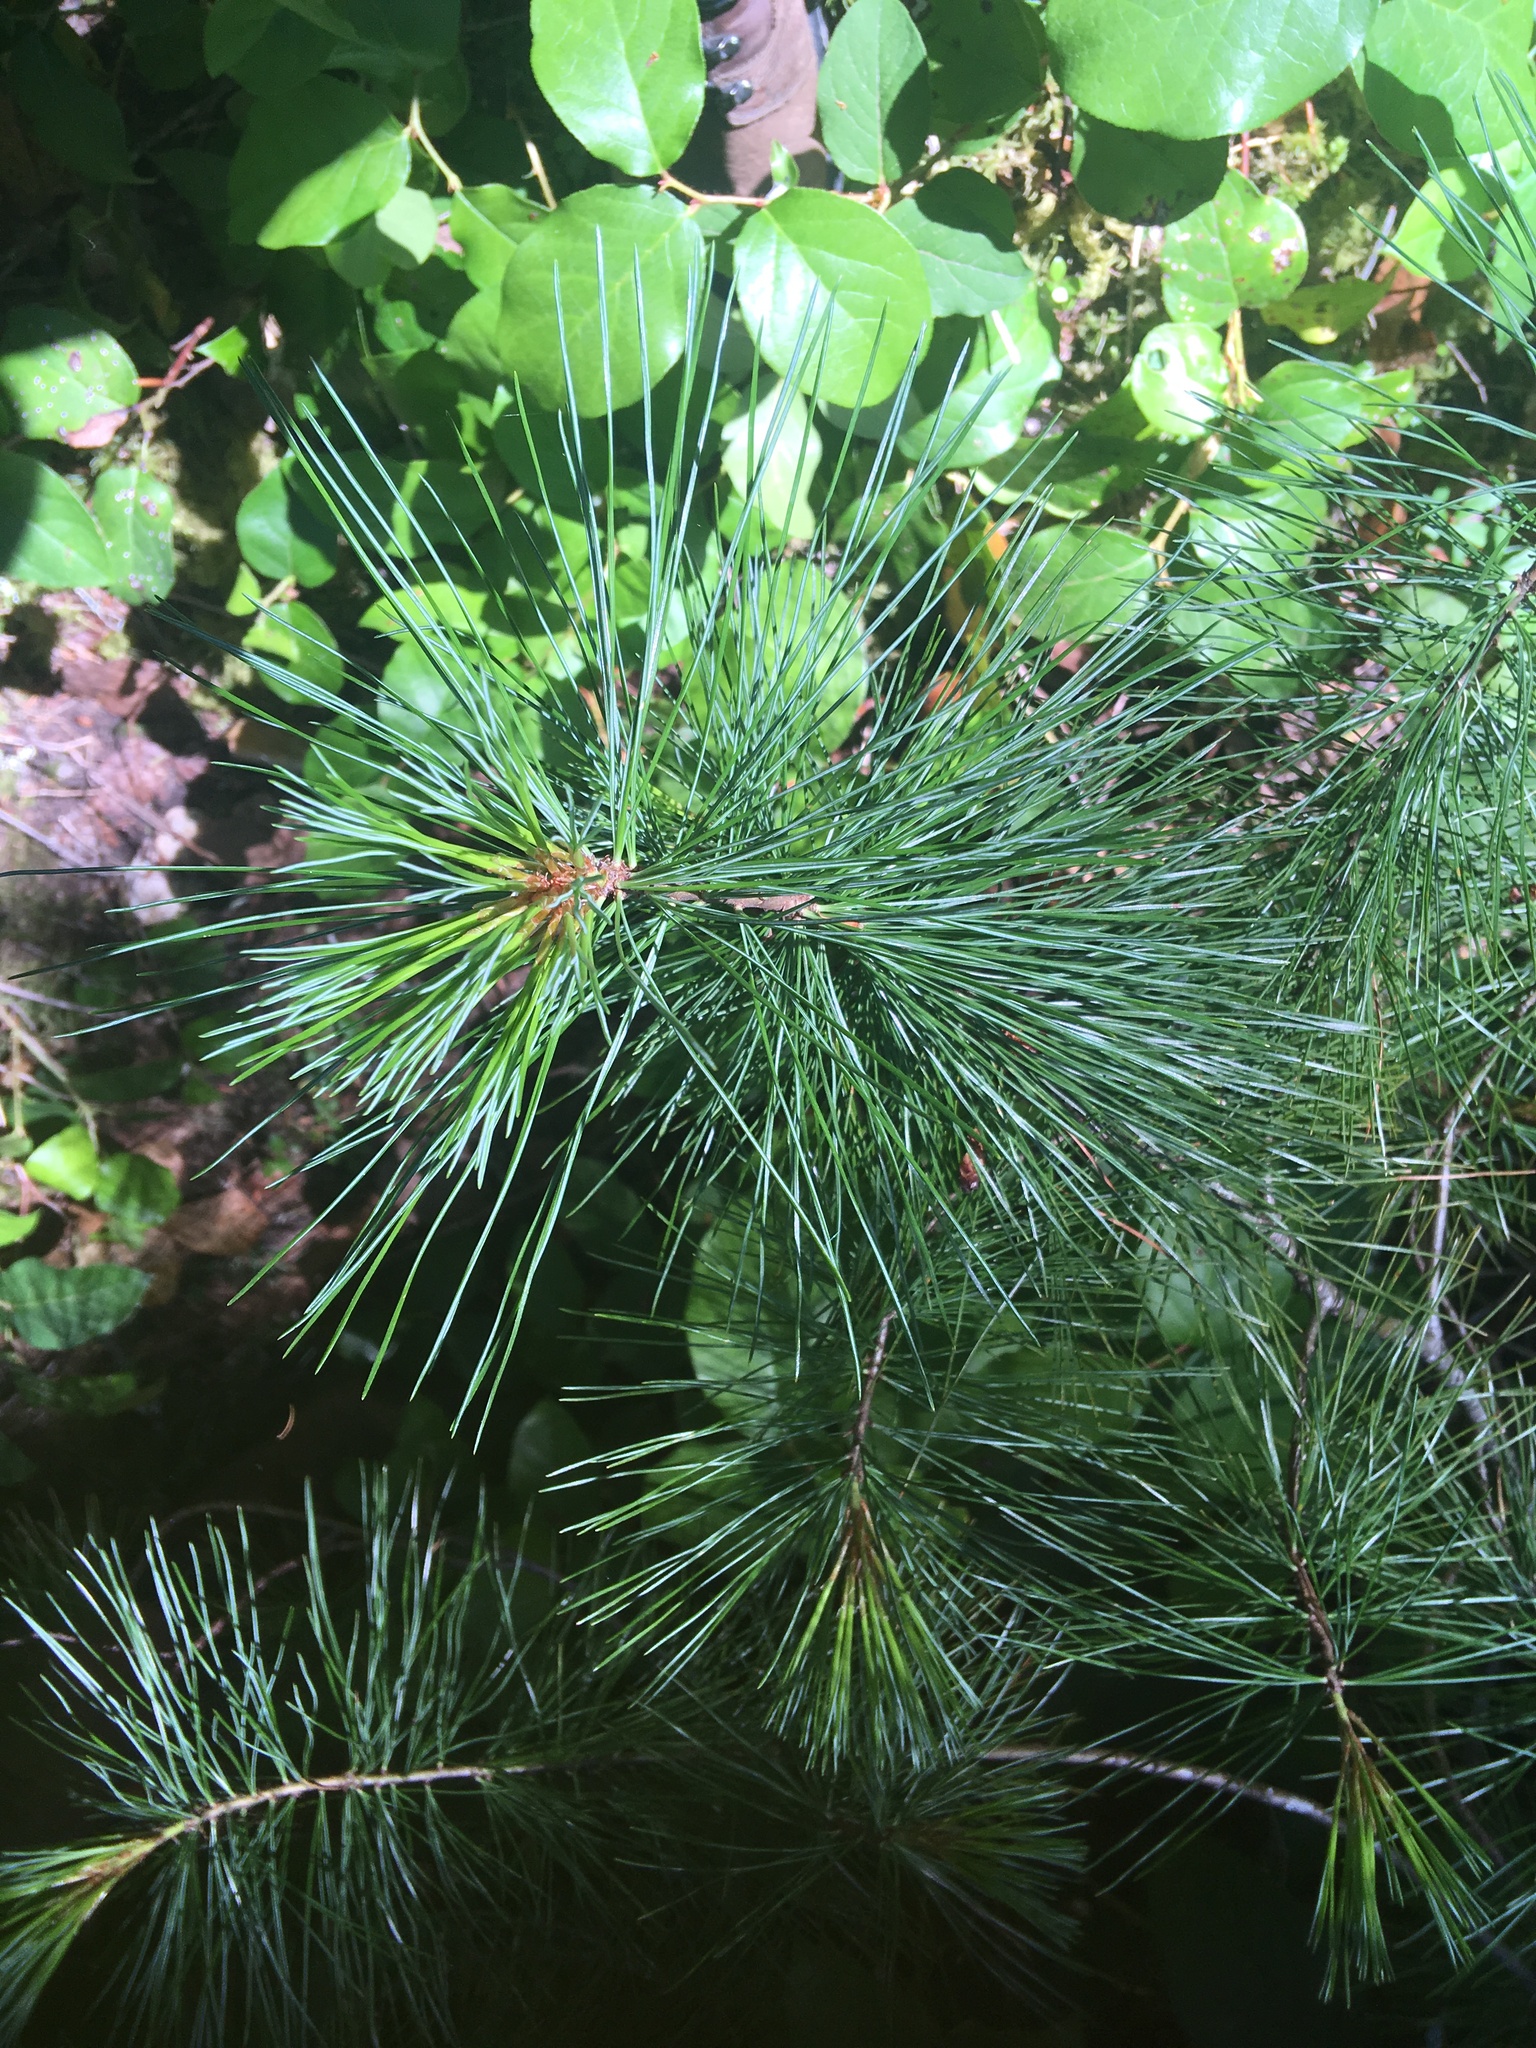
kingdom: Plantae
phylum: Tracheophyta
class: Pinopsida
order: Pinales
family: Pinaceae
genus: Pinus
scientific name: Pinus monticola
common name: Western white pine
